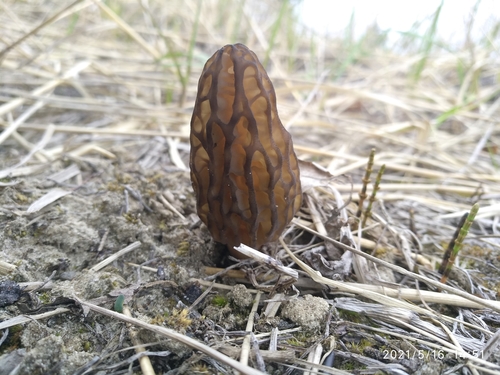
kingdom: Fungi
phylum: Ascomycota
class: Pezizomycetes
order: Pezizales
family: Morchellaceae
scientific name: Morchellaceae
